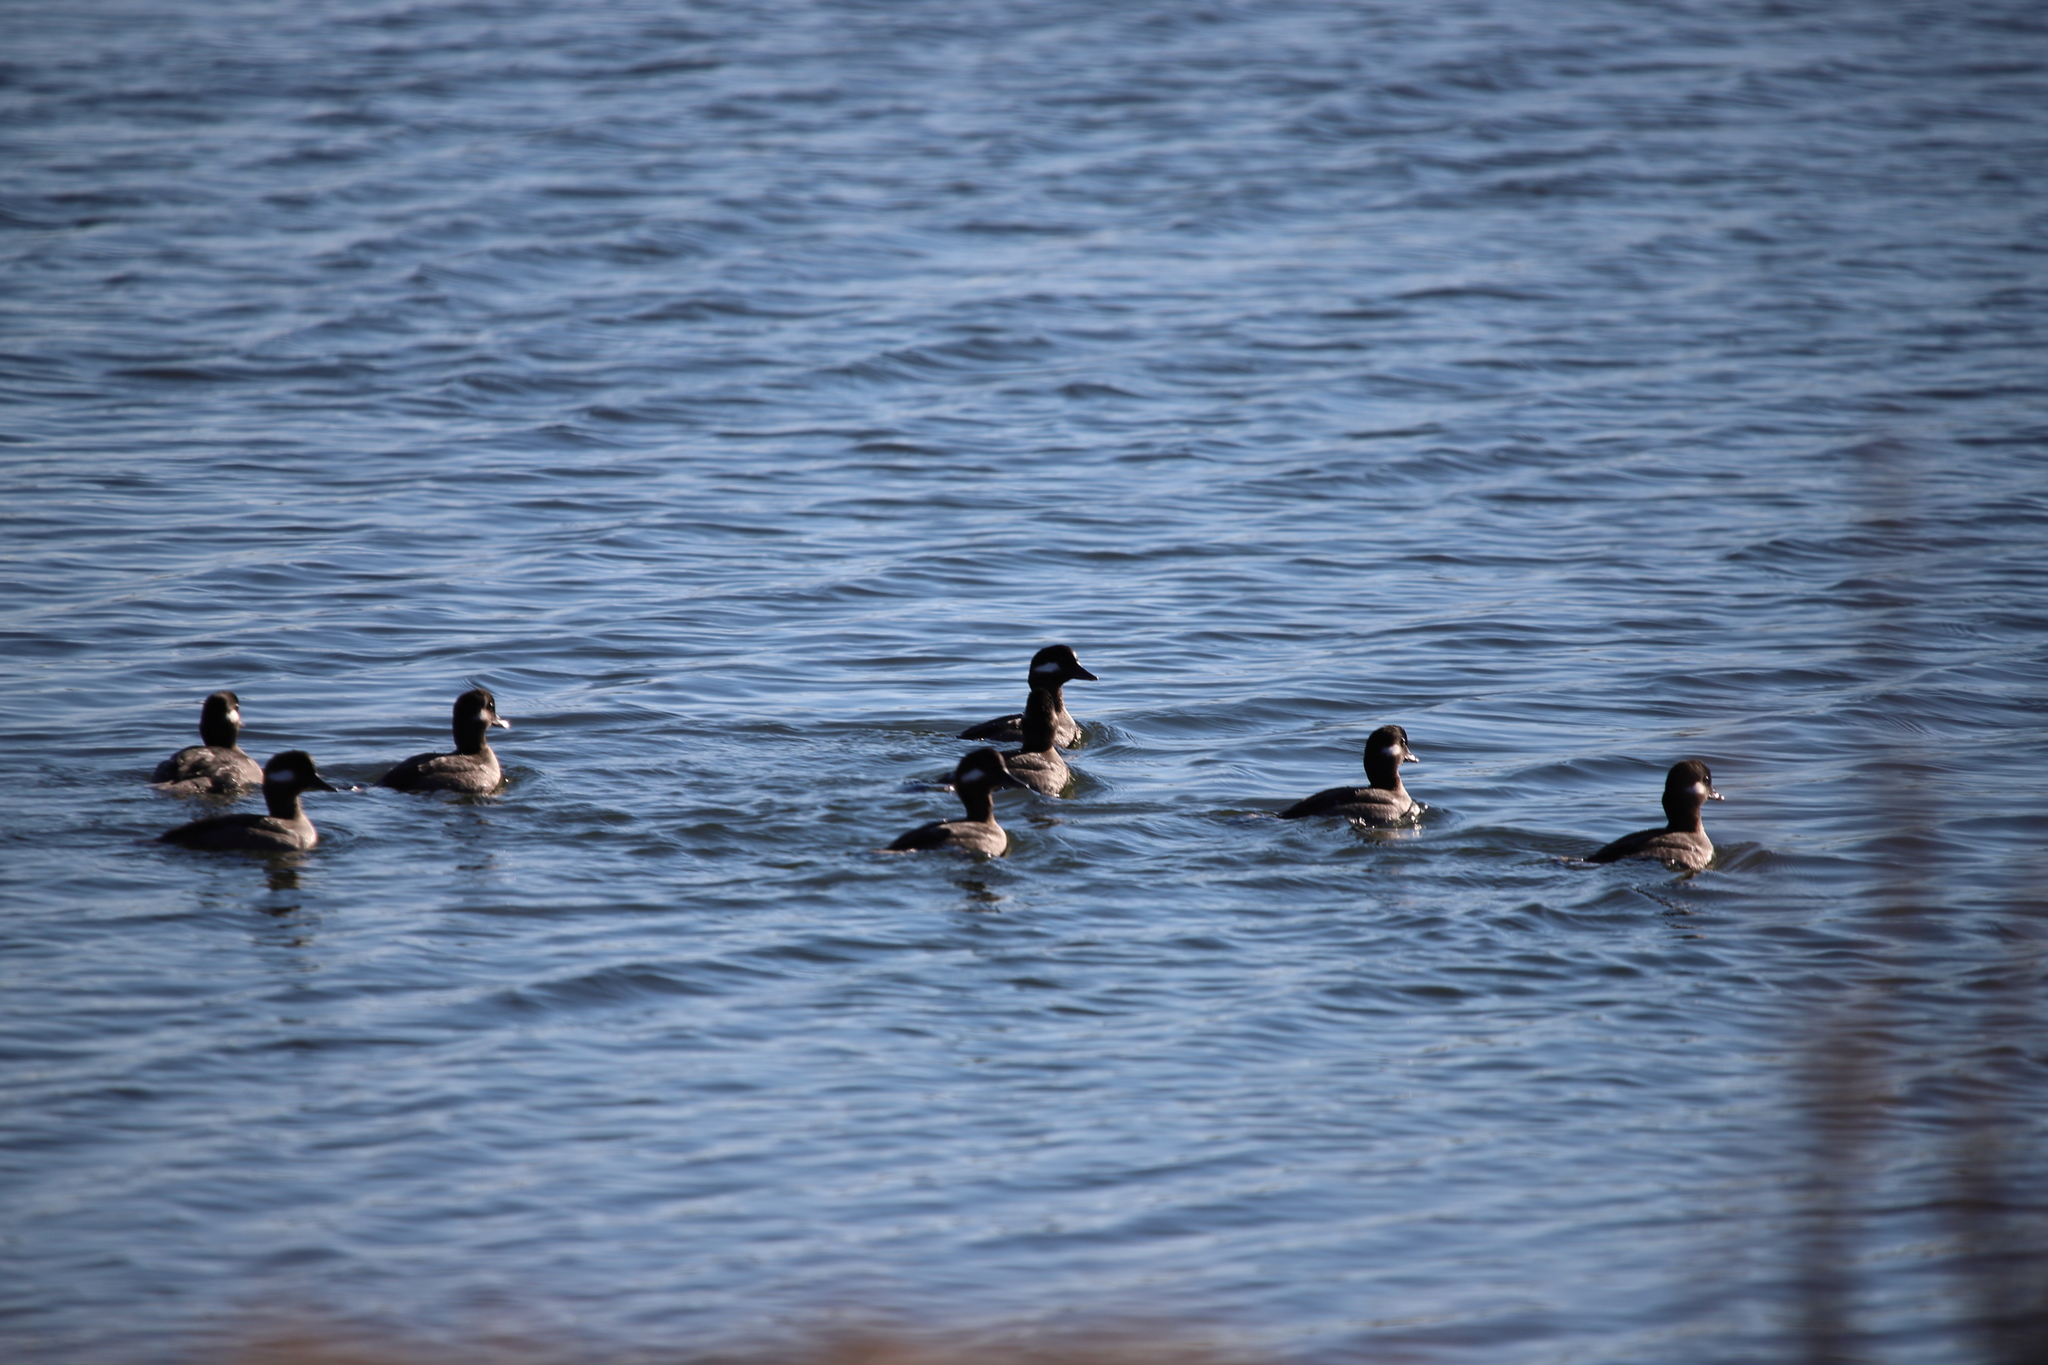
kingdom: Animalia
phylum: Chordata
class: Aves
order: Anseriformes
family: Anatidae
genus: Bucephala
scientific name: Bucephala albeola
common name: Bufflehead
